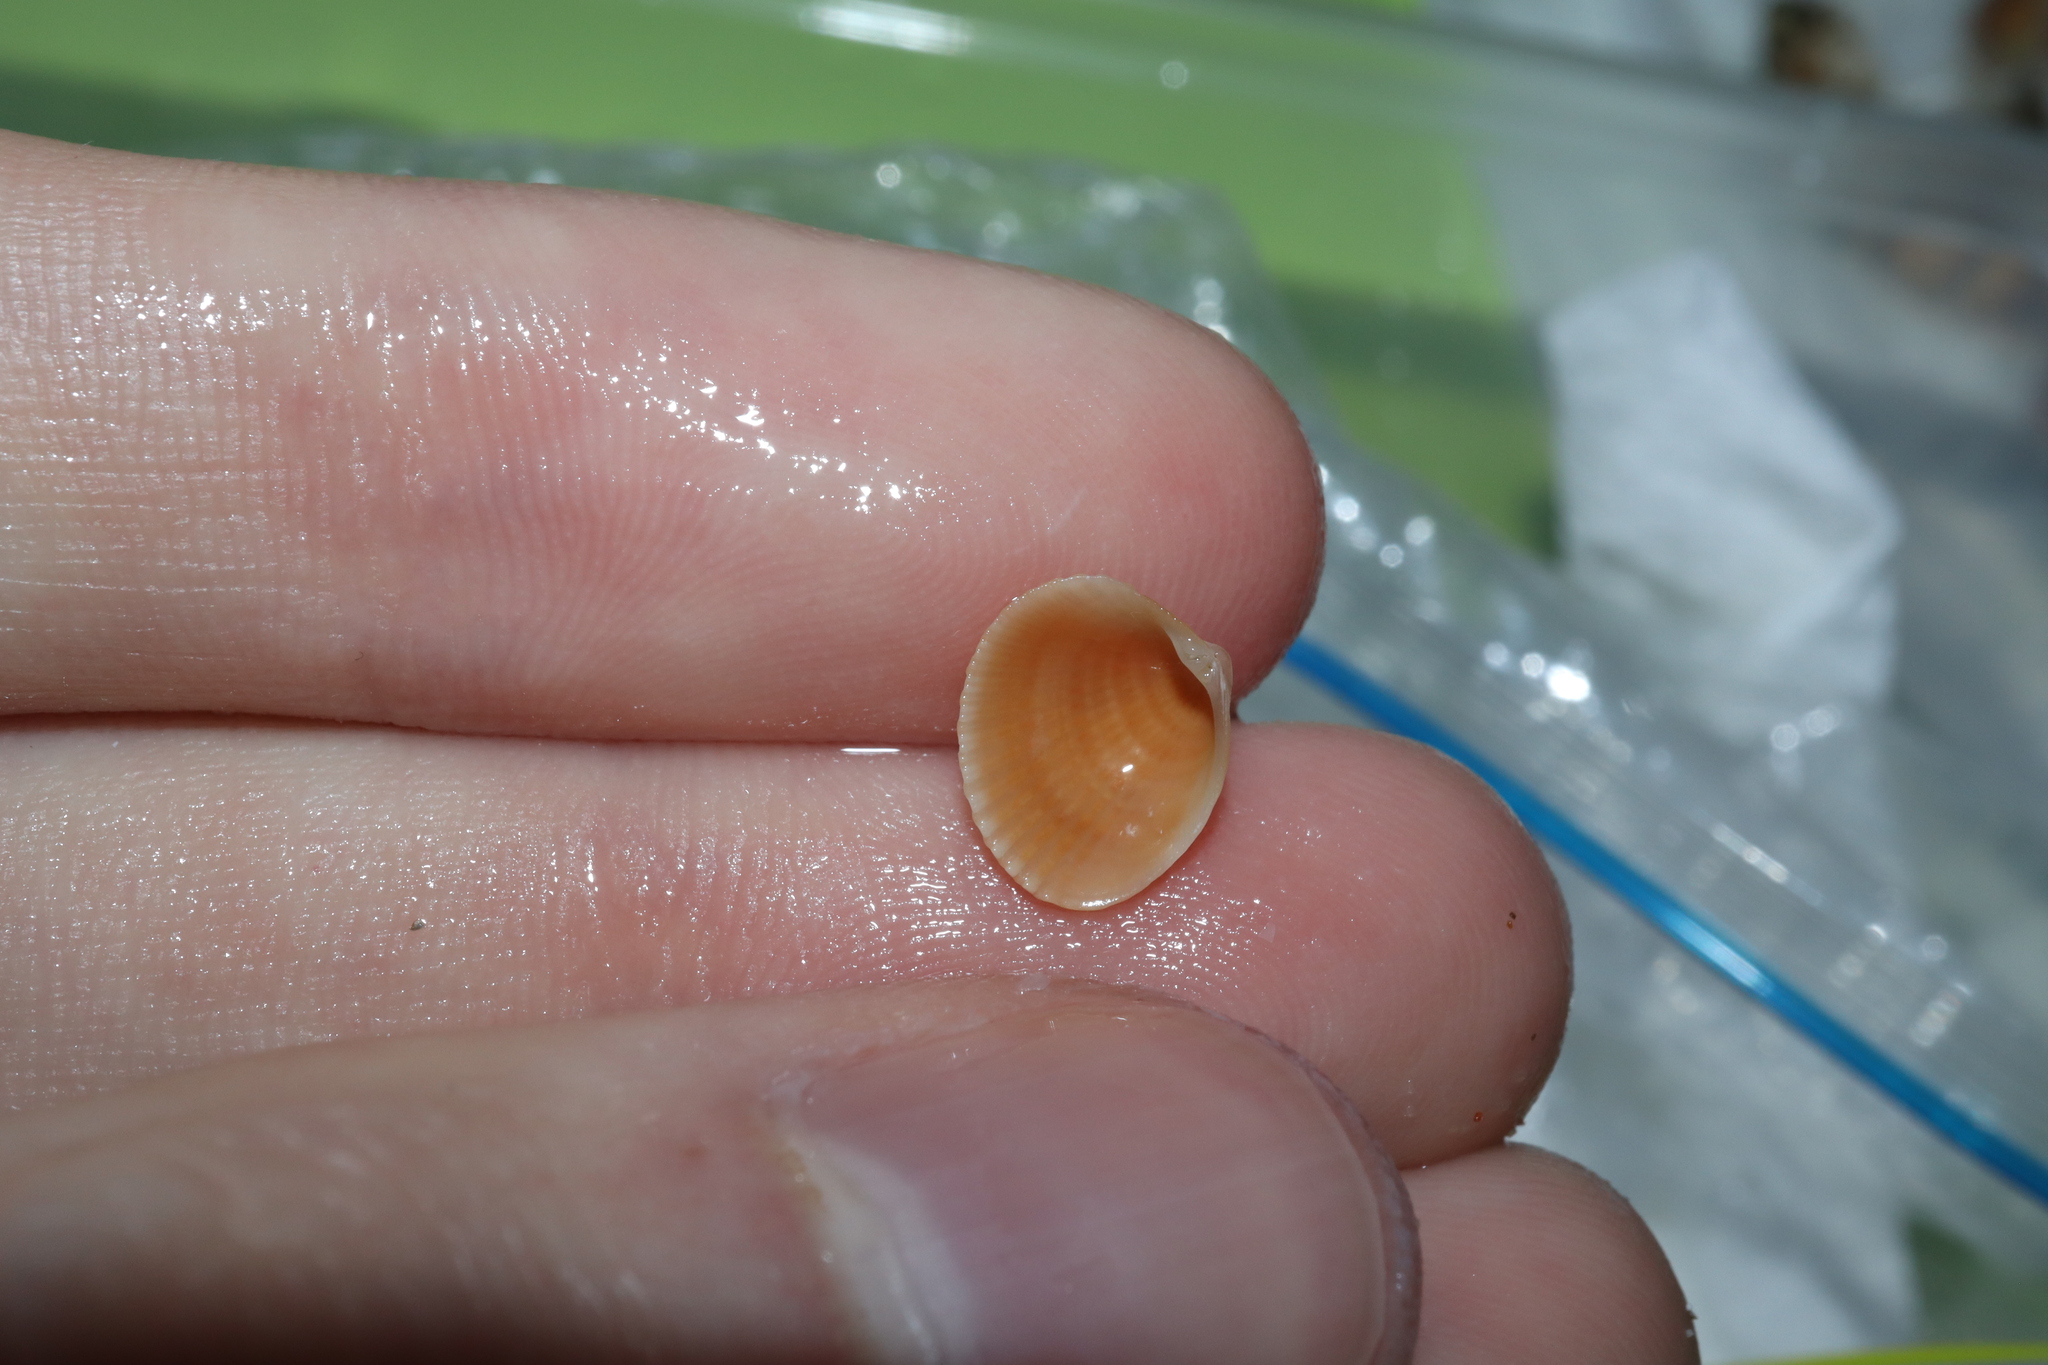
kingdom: Animalia
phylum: Mollusca
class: Bivalvia
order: Venerida
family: Veneridae
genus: Timoclea
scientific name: Timoclea scabra
